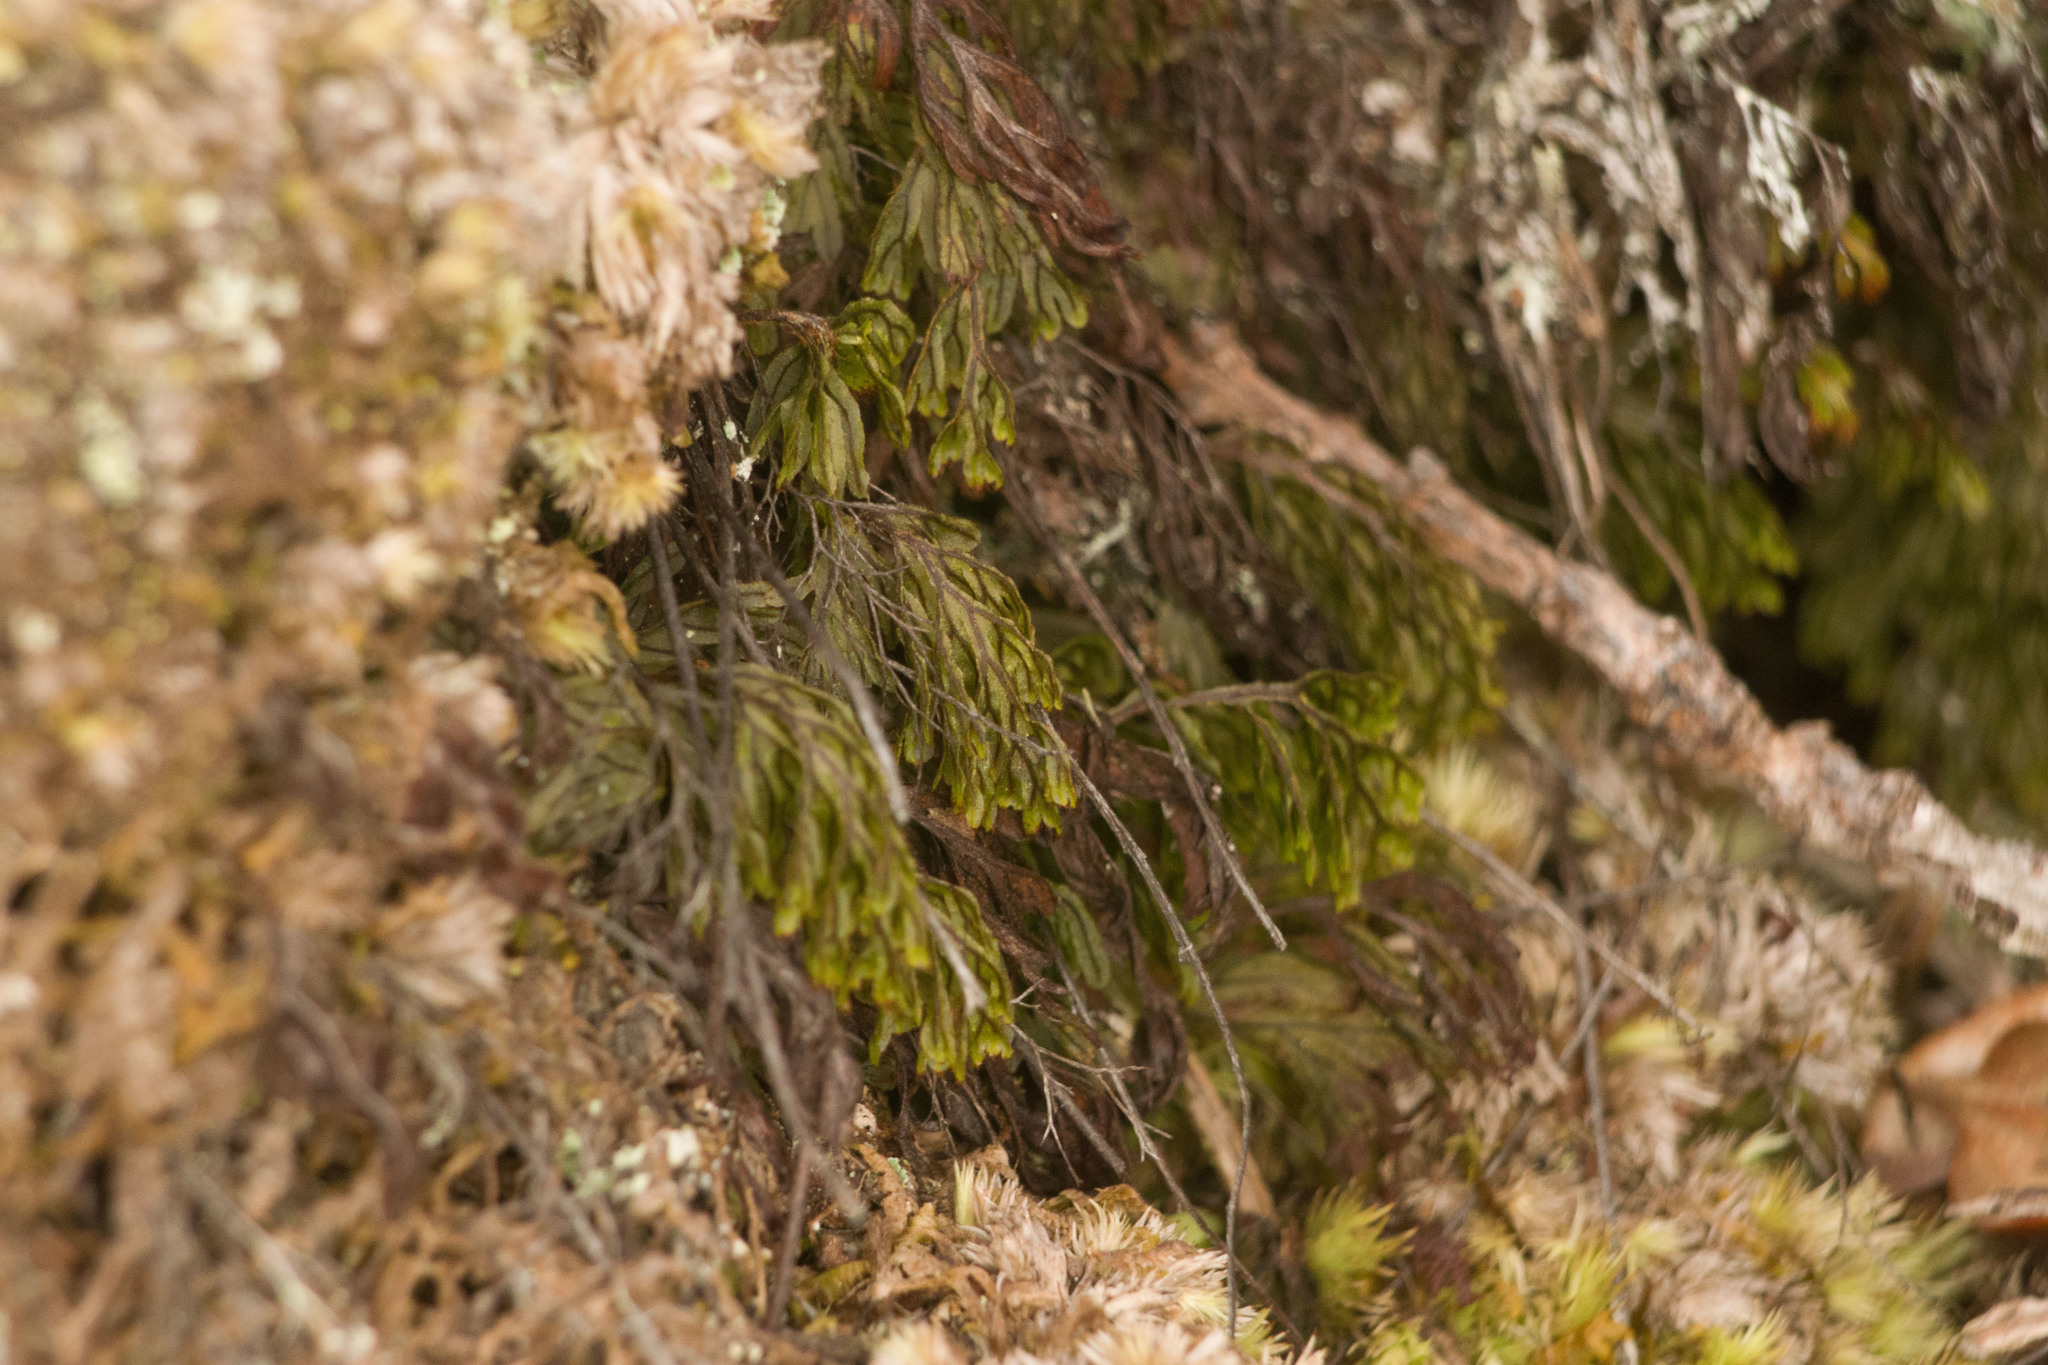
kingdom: Plantae
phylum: Tracheophyta
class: Polypodiopsida
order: Hymenophyllales
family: Hymenophyllaceae
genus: Hymenophyllum
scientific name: Hymenophyllum lanceolatum
